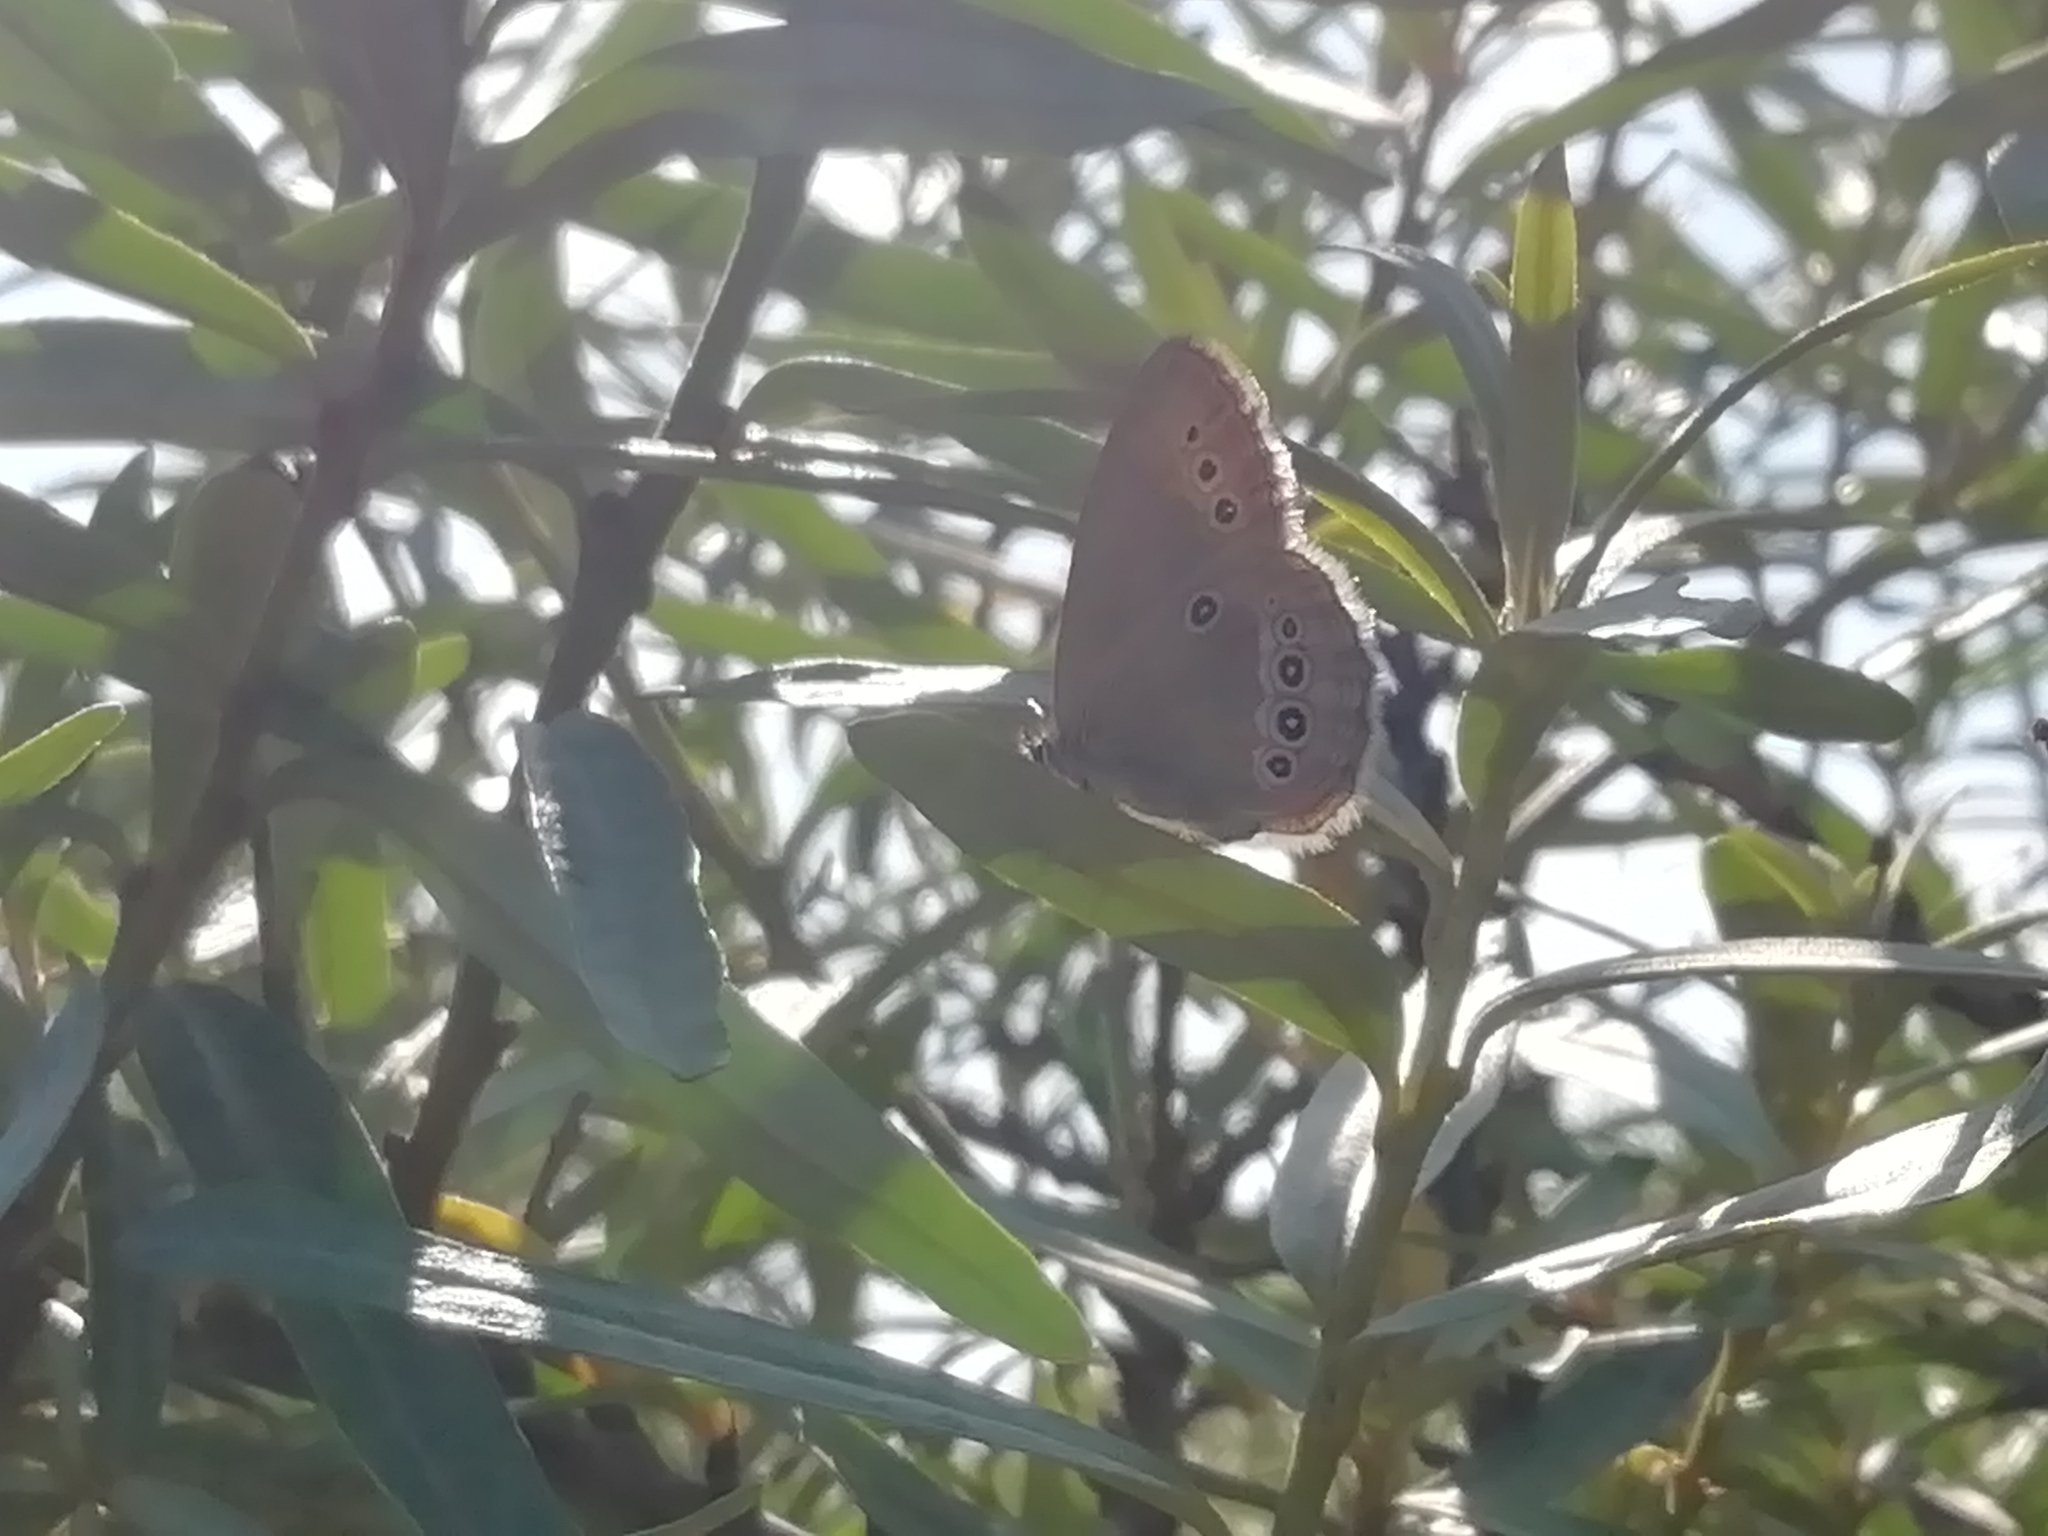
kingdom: Animalia
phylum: Arthropoda
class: Insecta
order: Lepidoptera
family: Nymphalidae
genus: Coenonympha
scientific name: Coenonympha oedippus
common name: False ringlet
